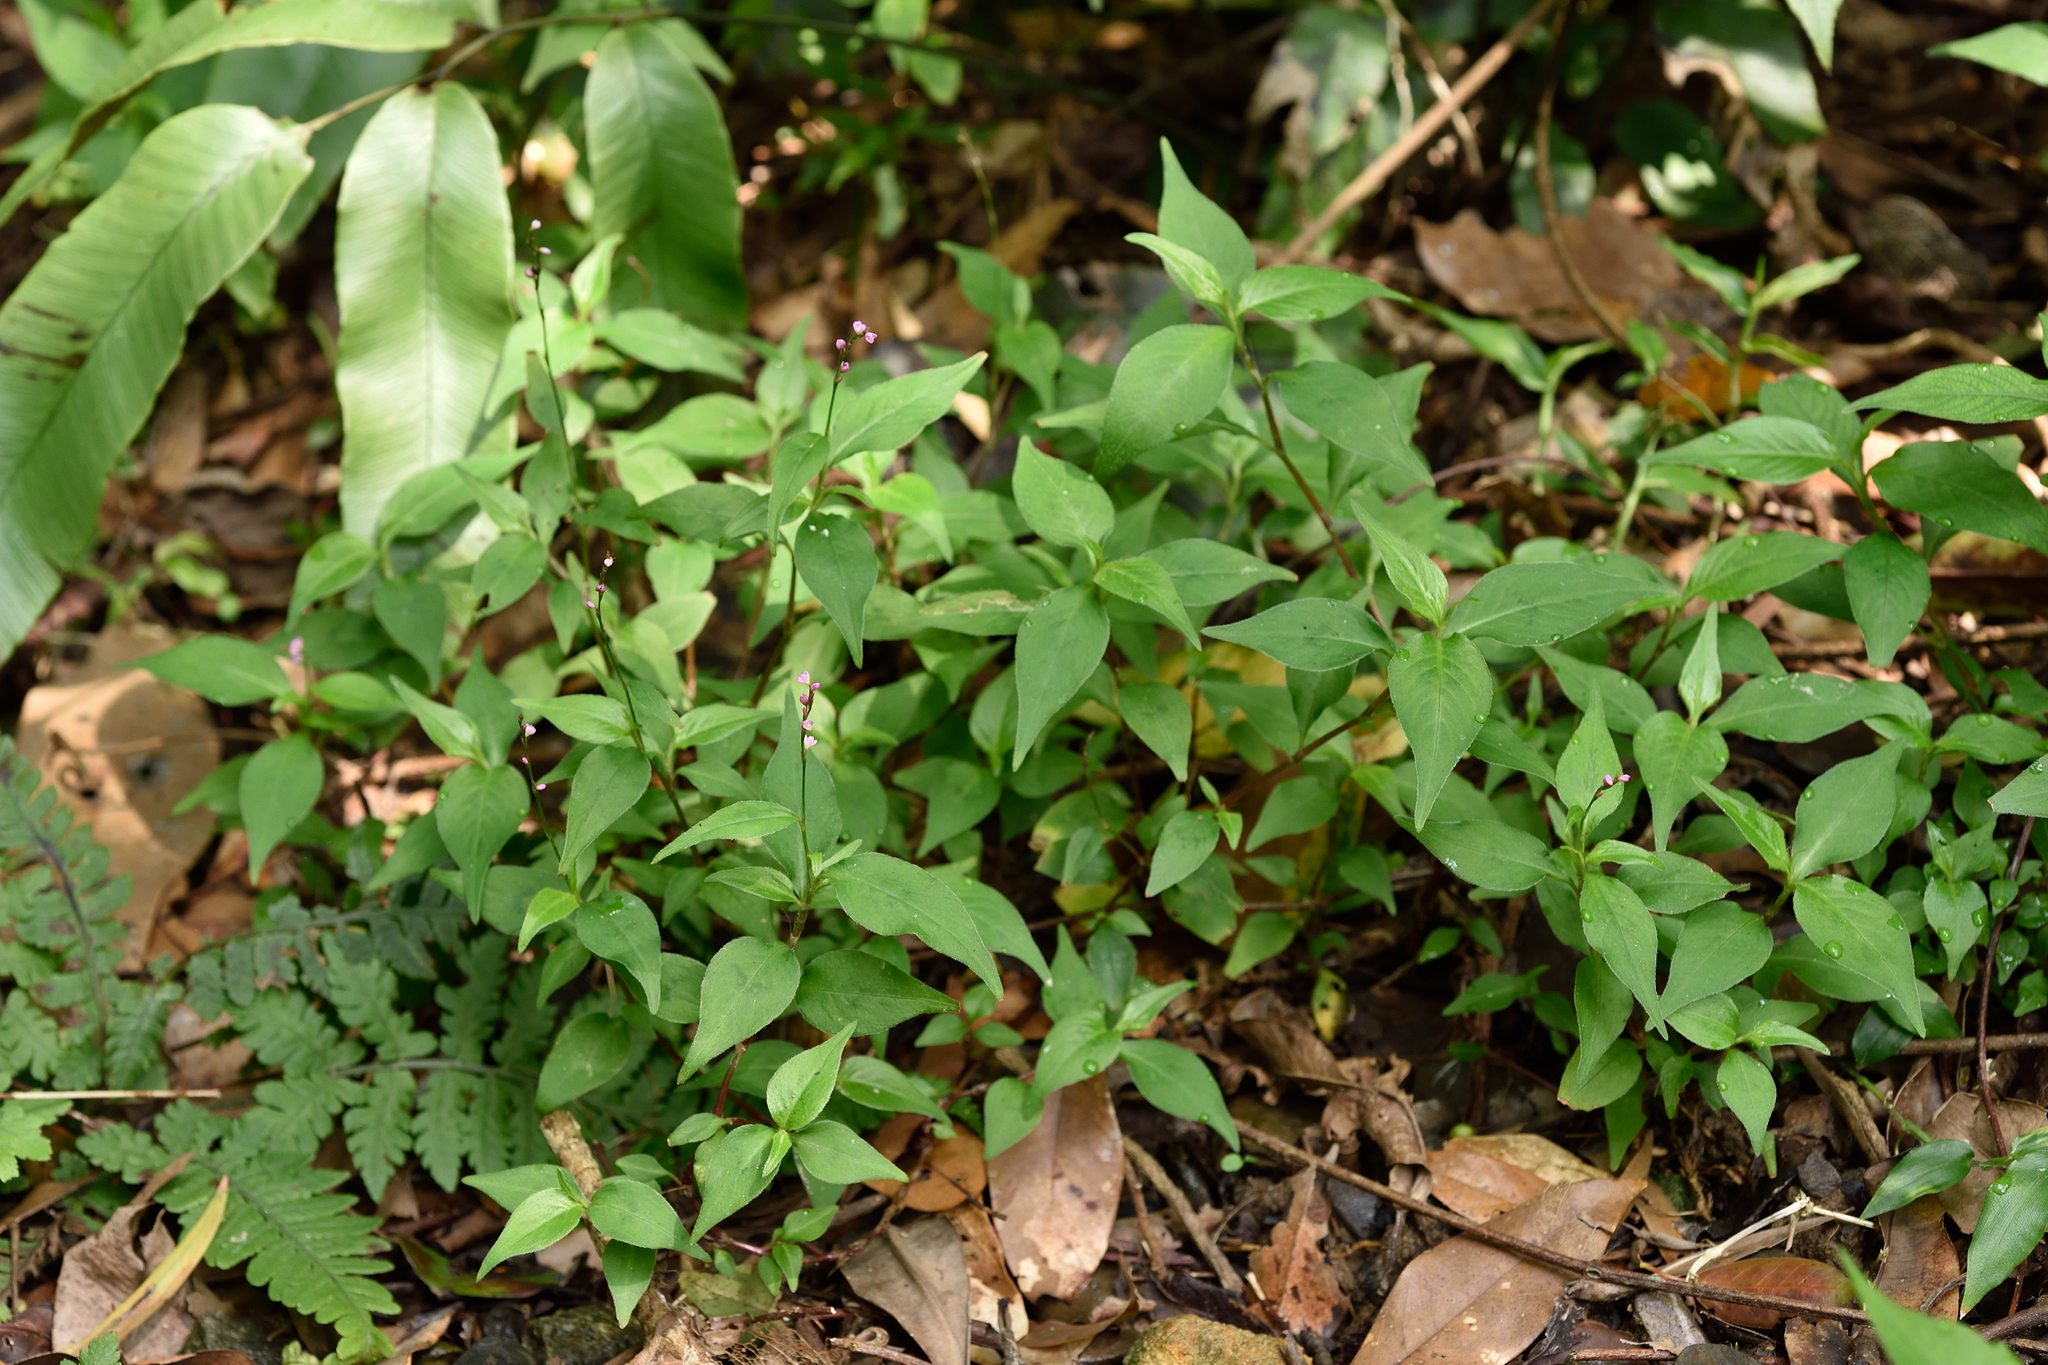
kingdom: Plantae
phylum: Tracheophyta
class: Magnoliopsida
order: Caryophyllales
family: Polygonaceae
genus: Persicaria
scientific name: Persicaria posumbu
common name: Oriental lady's thumb
